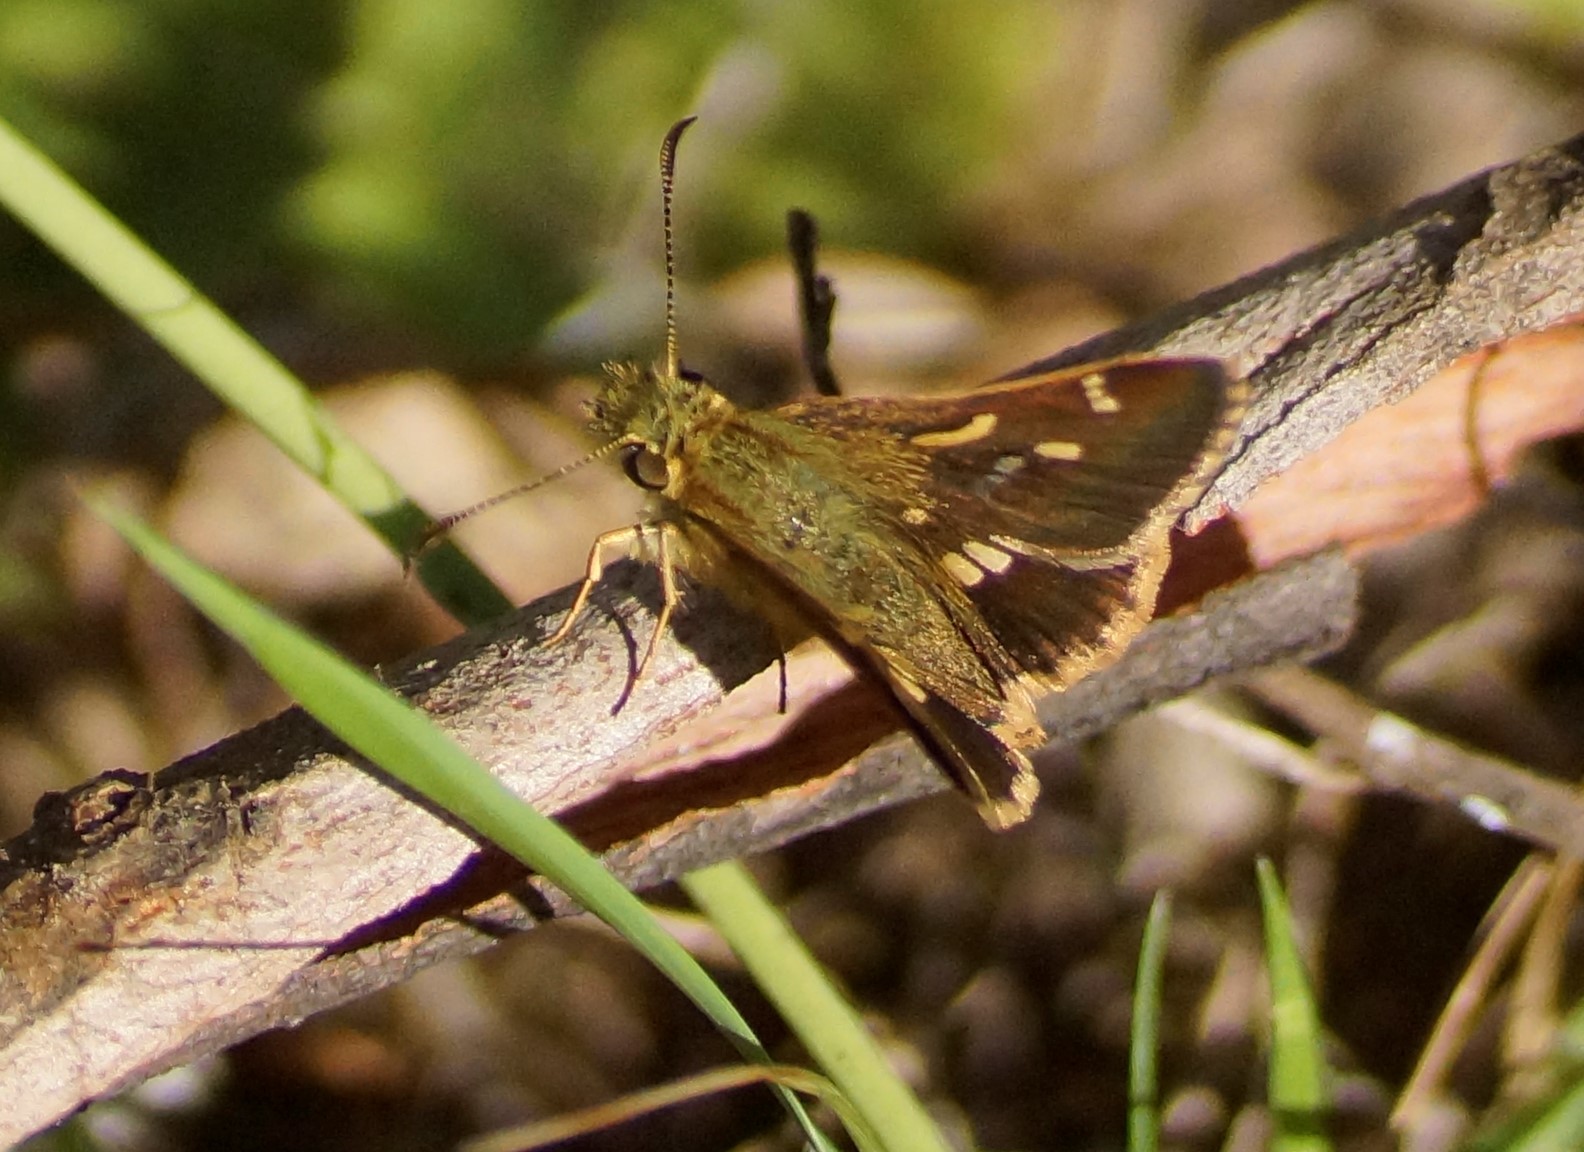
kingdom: Animalia
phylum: Arthropoda
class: Insecta
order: Lepidoptera
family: Hesperiidae
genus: Dispar
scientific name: Dispar compacta
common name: Barred skipper
